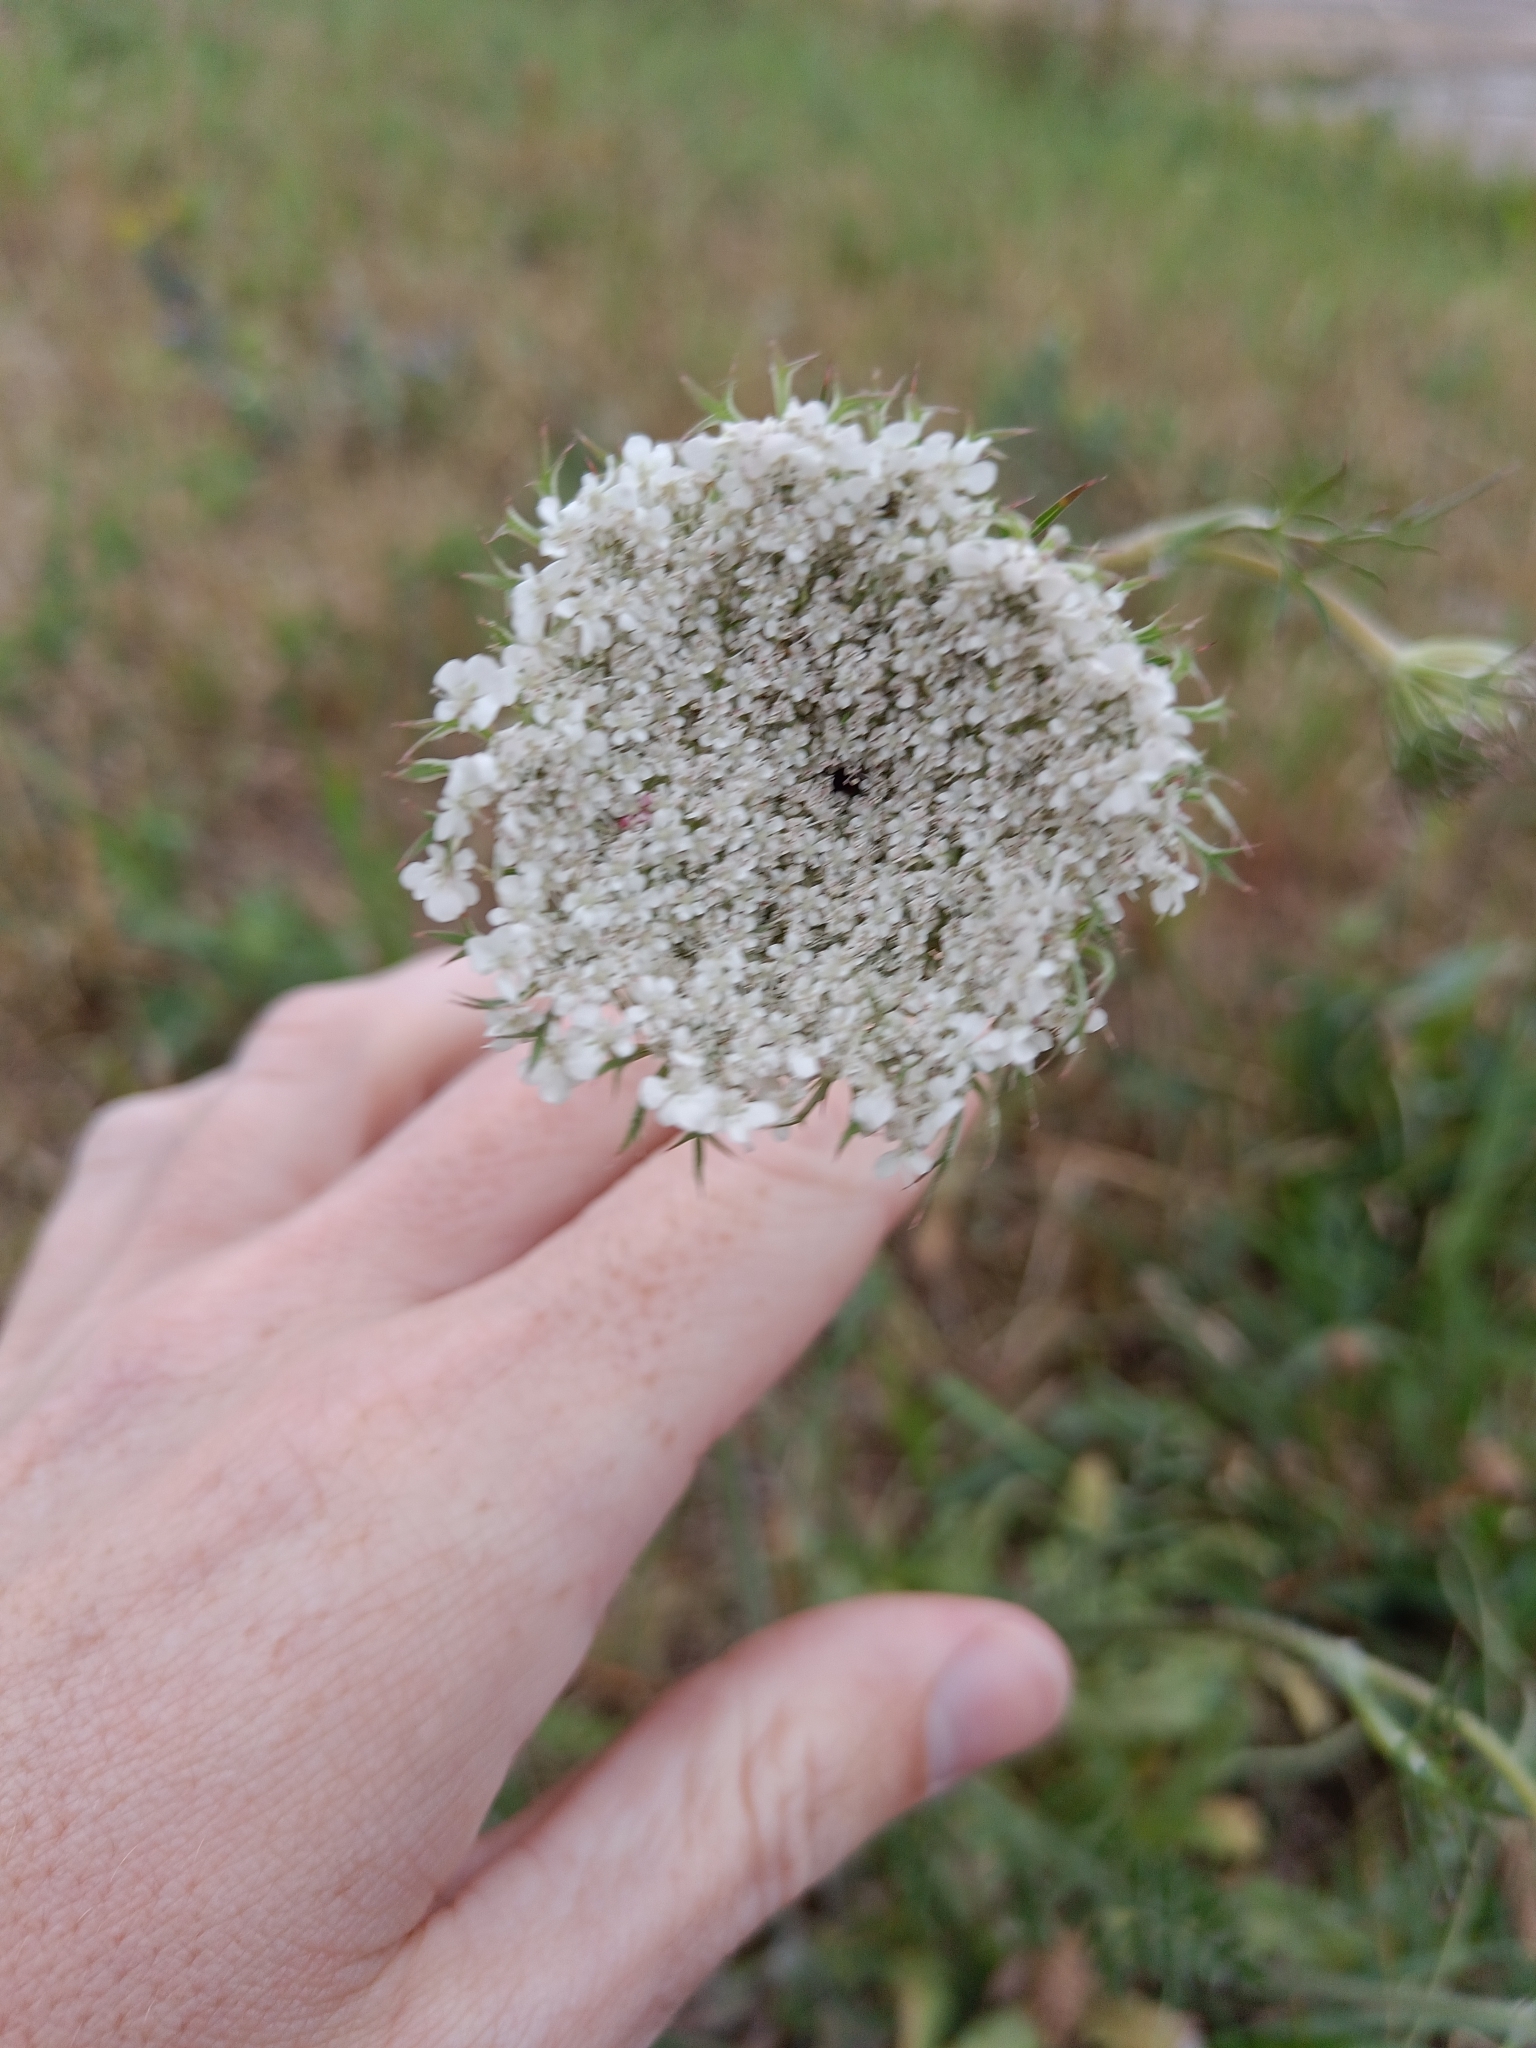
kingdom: Plantae
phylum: Tracheophyta
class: Magnoliopsida
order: Apiales
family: Apiaceae
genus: Daucus
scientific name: Daucus carota
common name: Wild carrot
